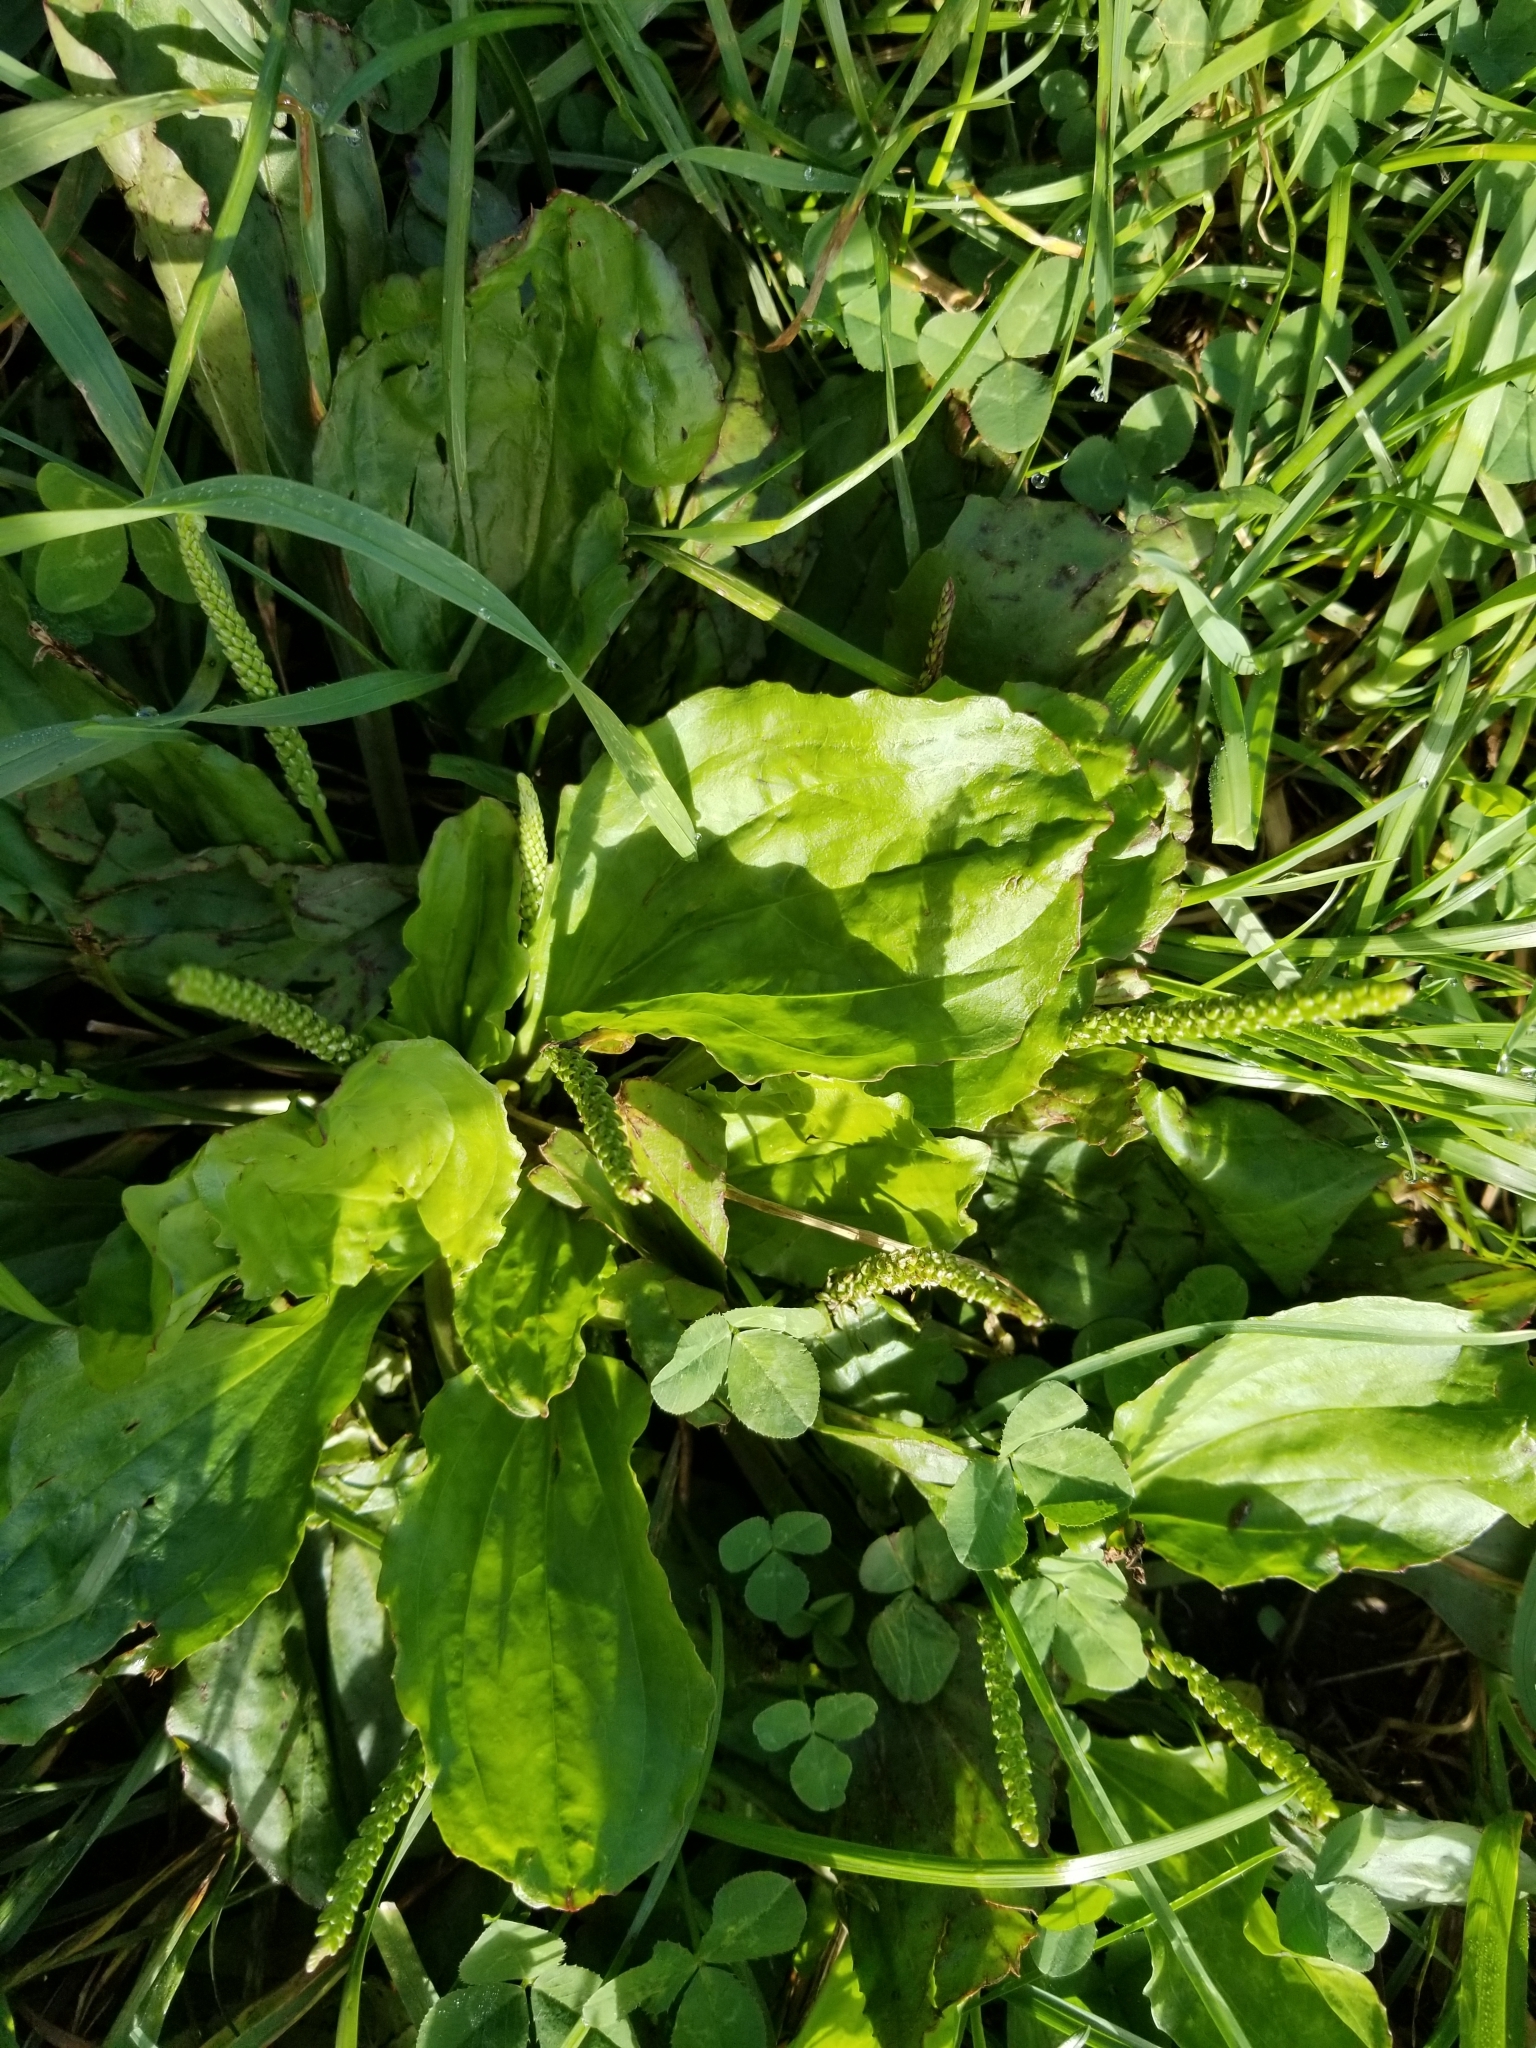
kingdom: Plantae
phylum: Tracheophyta
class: Magnoliopsida
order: Lamiales
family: Plantaginaceae
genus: Plantago
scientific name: Plantago major
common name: Common plantain
